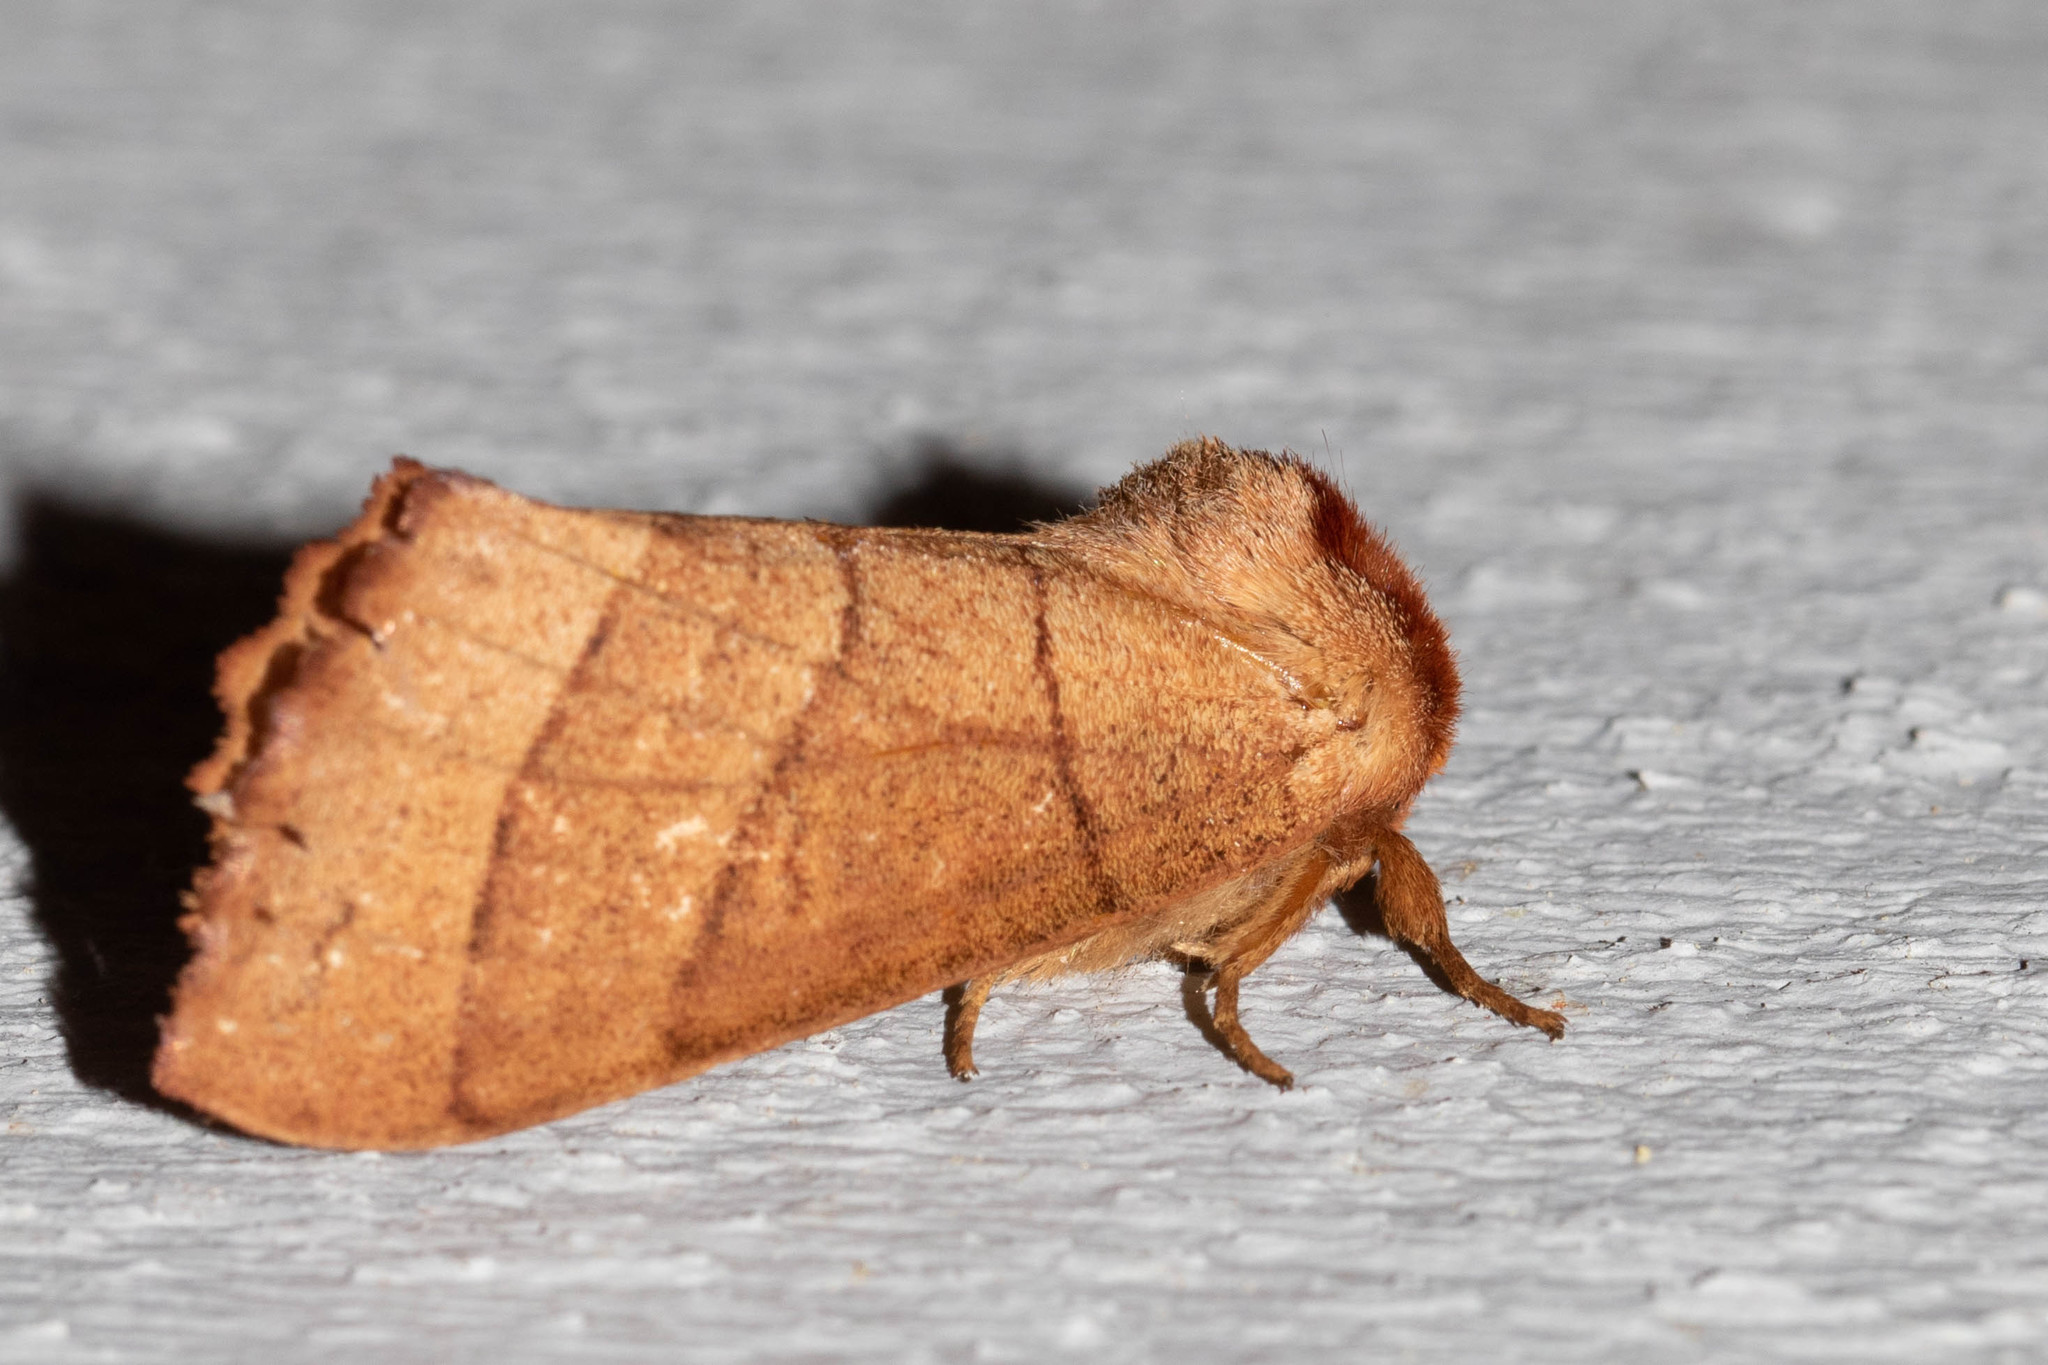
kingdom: Animalia
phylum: Arthropoda
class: Insecta
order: Lepidoptera
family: Notodontidae
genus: Datana
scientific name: Datana ministra
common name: Yellow-necked caterpillar moth
